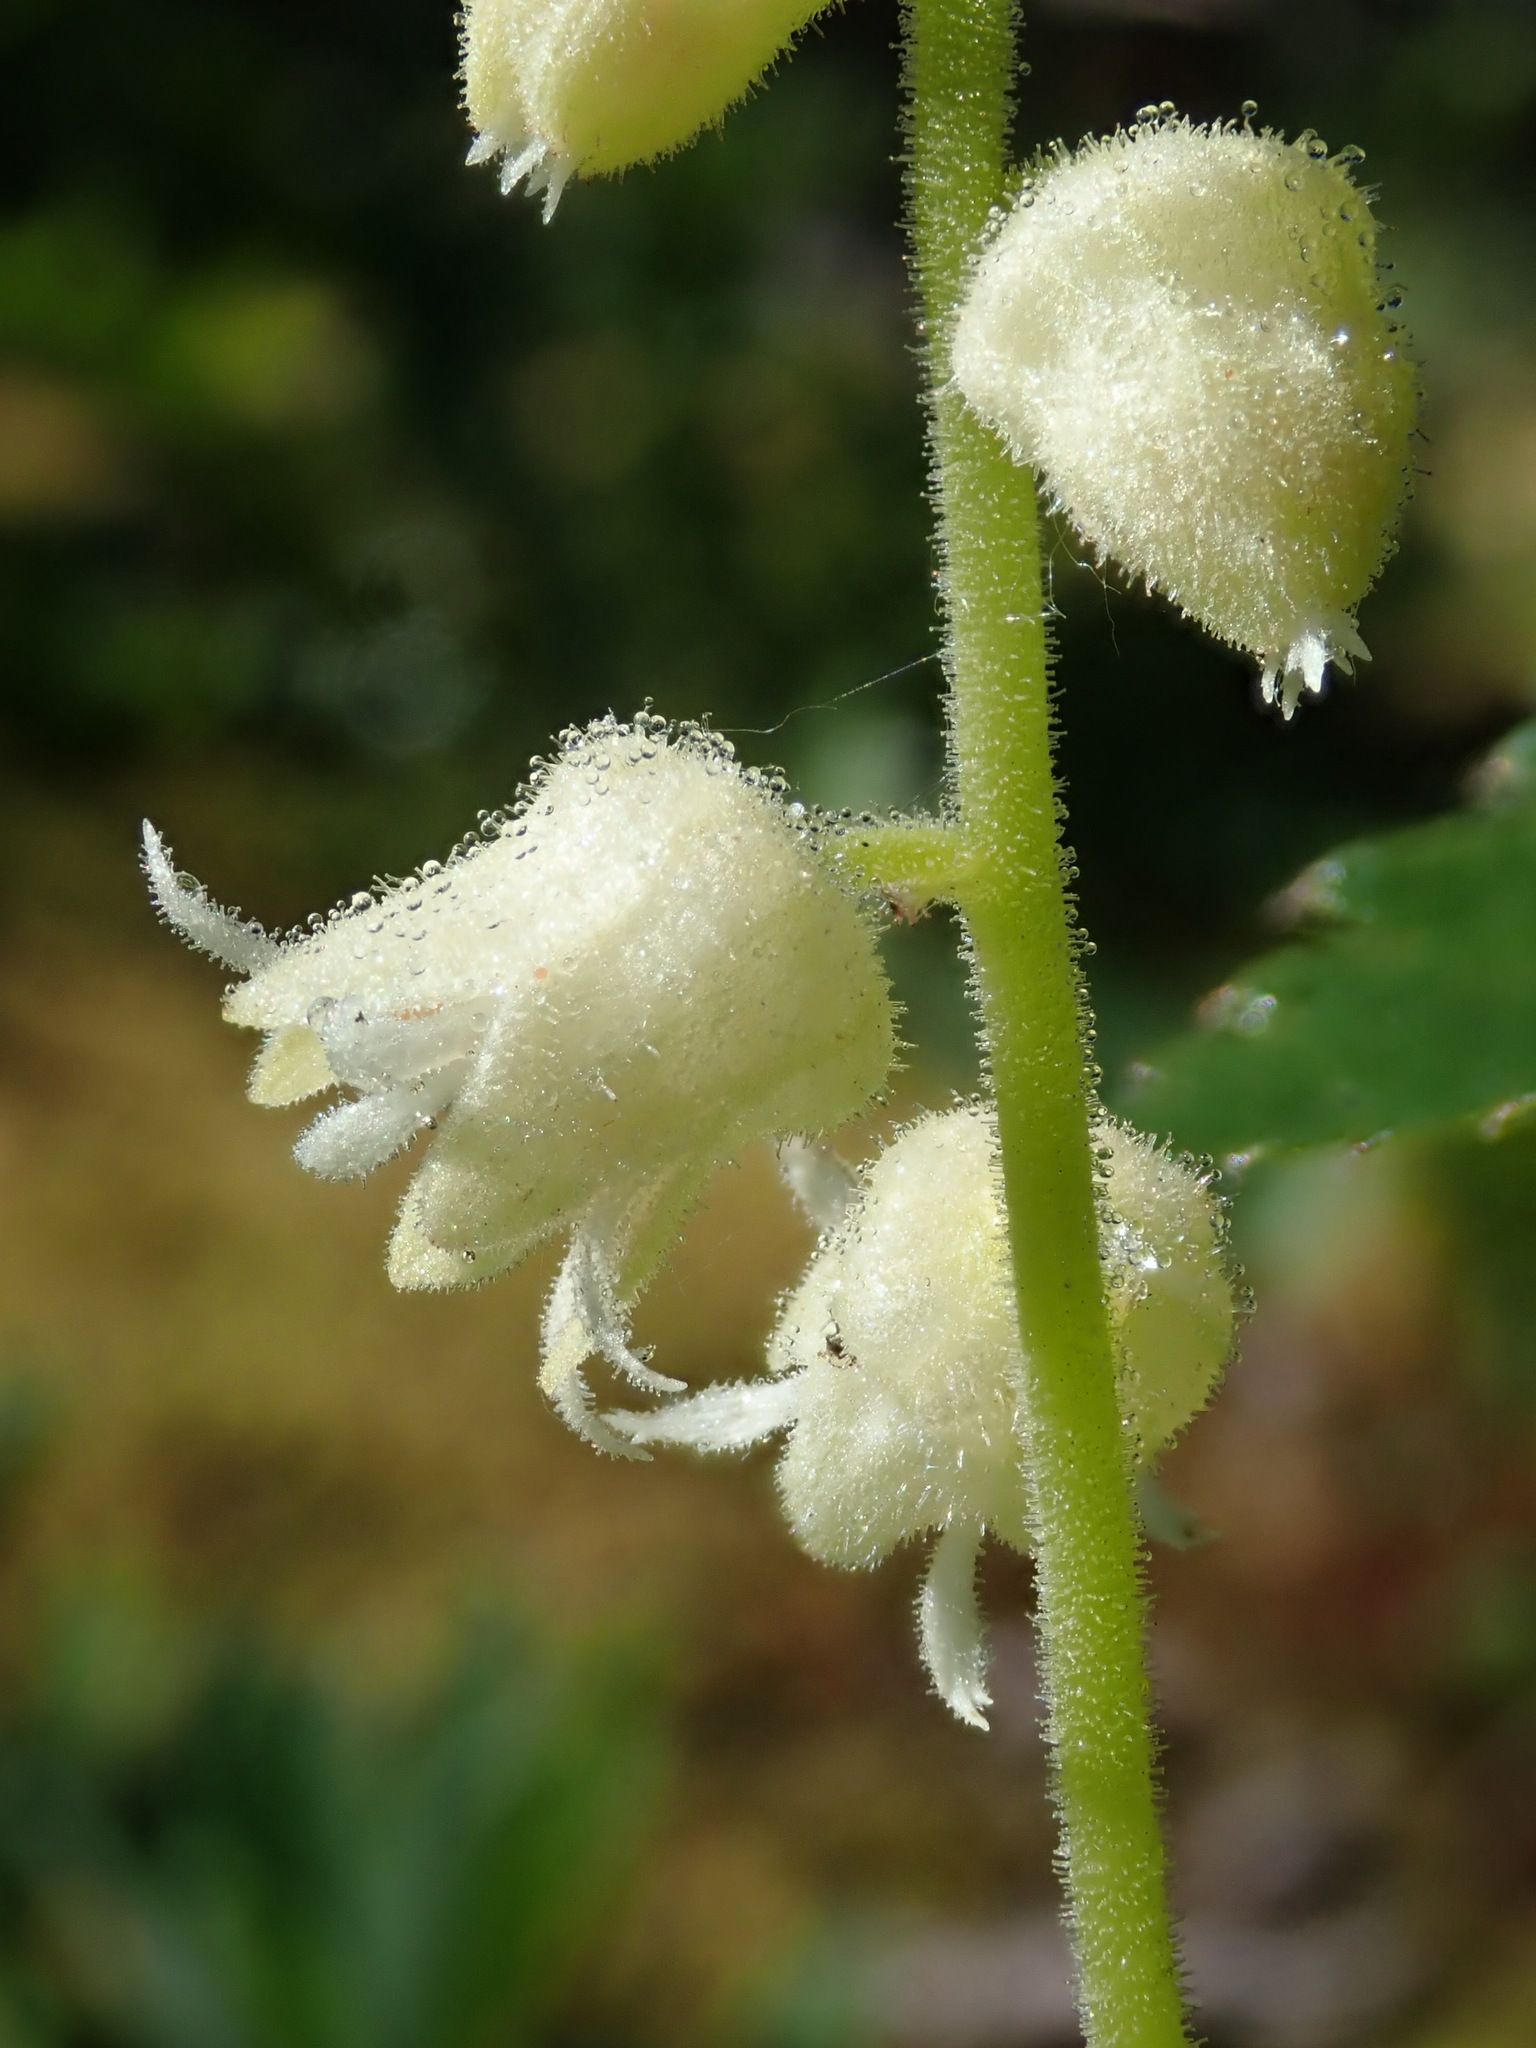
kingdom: Plantae
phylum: Tracheophyta
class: Magnoliopsida
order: Saxifragales
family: Saxifragaceae
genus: Elmera
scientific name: Elmera racemosa
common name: Elmera
